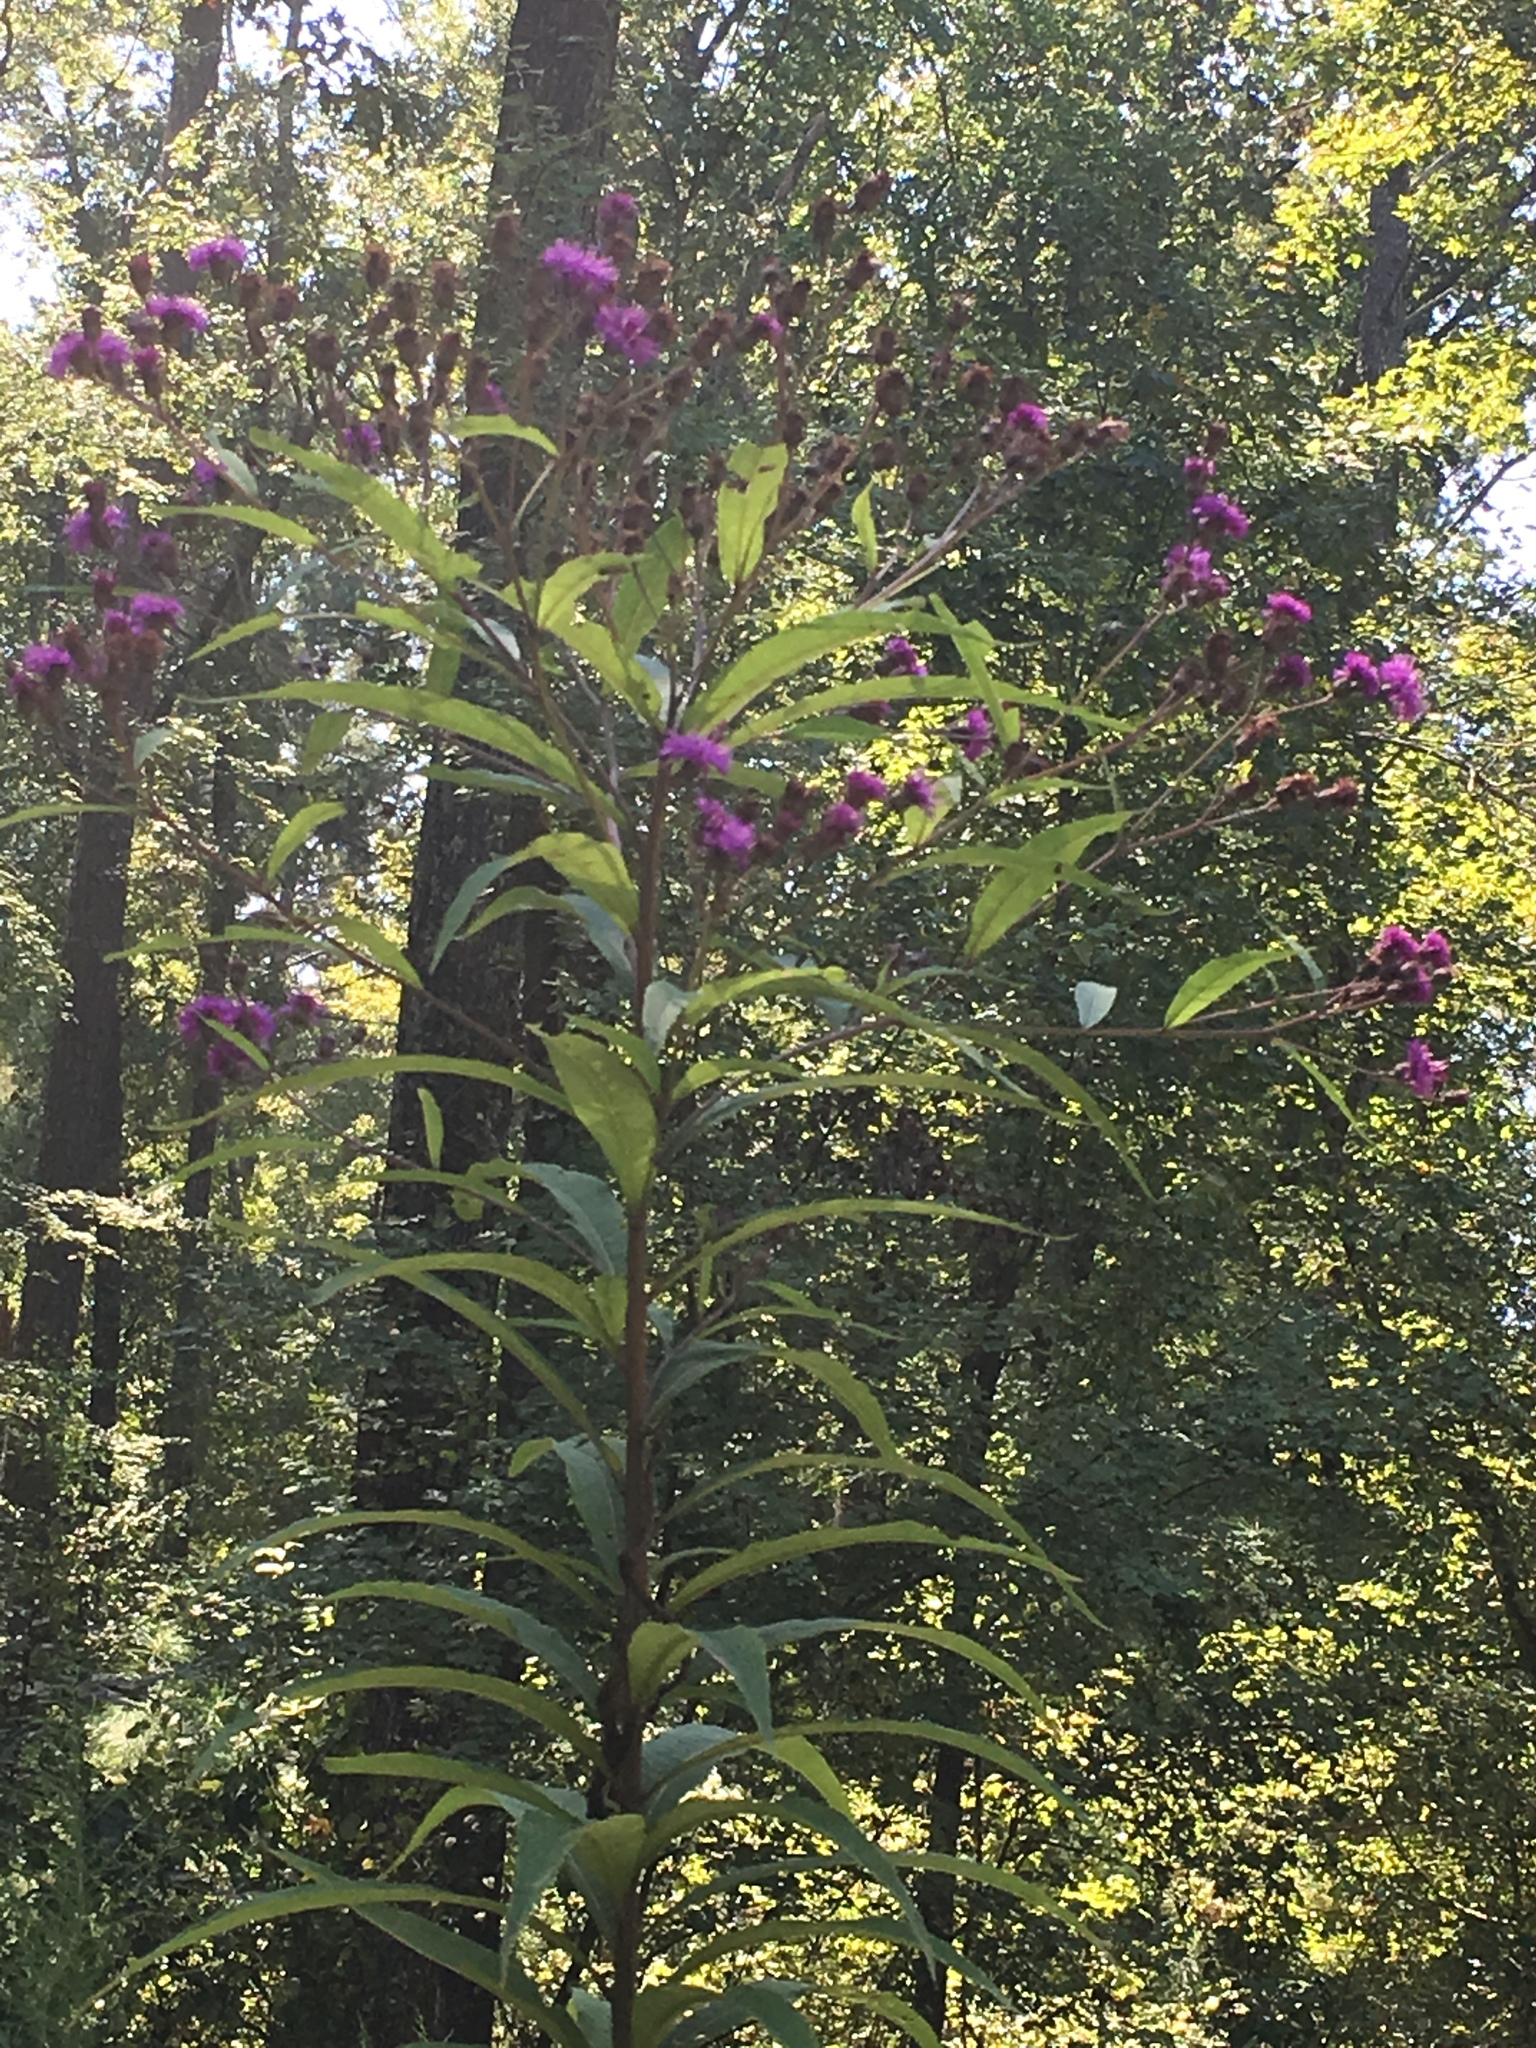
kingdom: Plantae
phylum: Tracheophyta
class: Magnoliopsida
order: Asterales
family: Asteraceae
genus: Vernonia
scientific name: Vernonia noveboracensis
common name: New york ironweed
